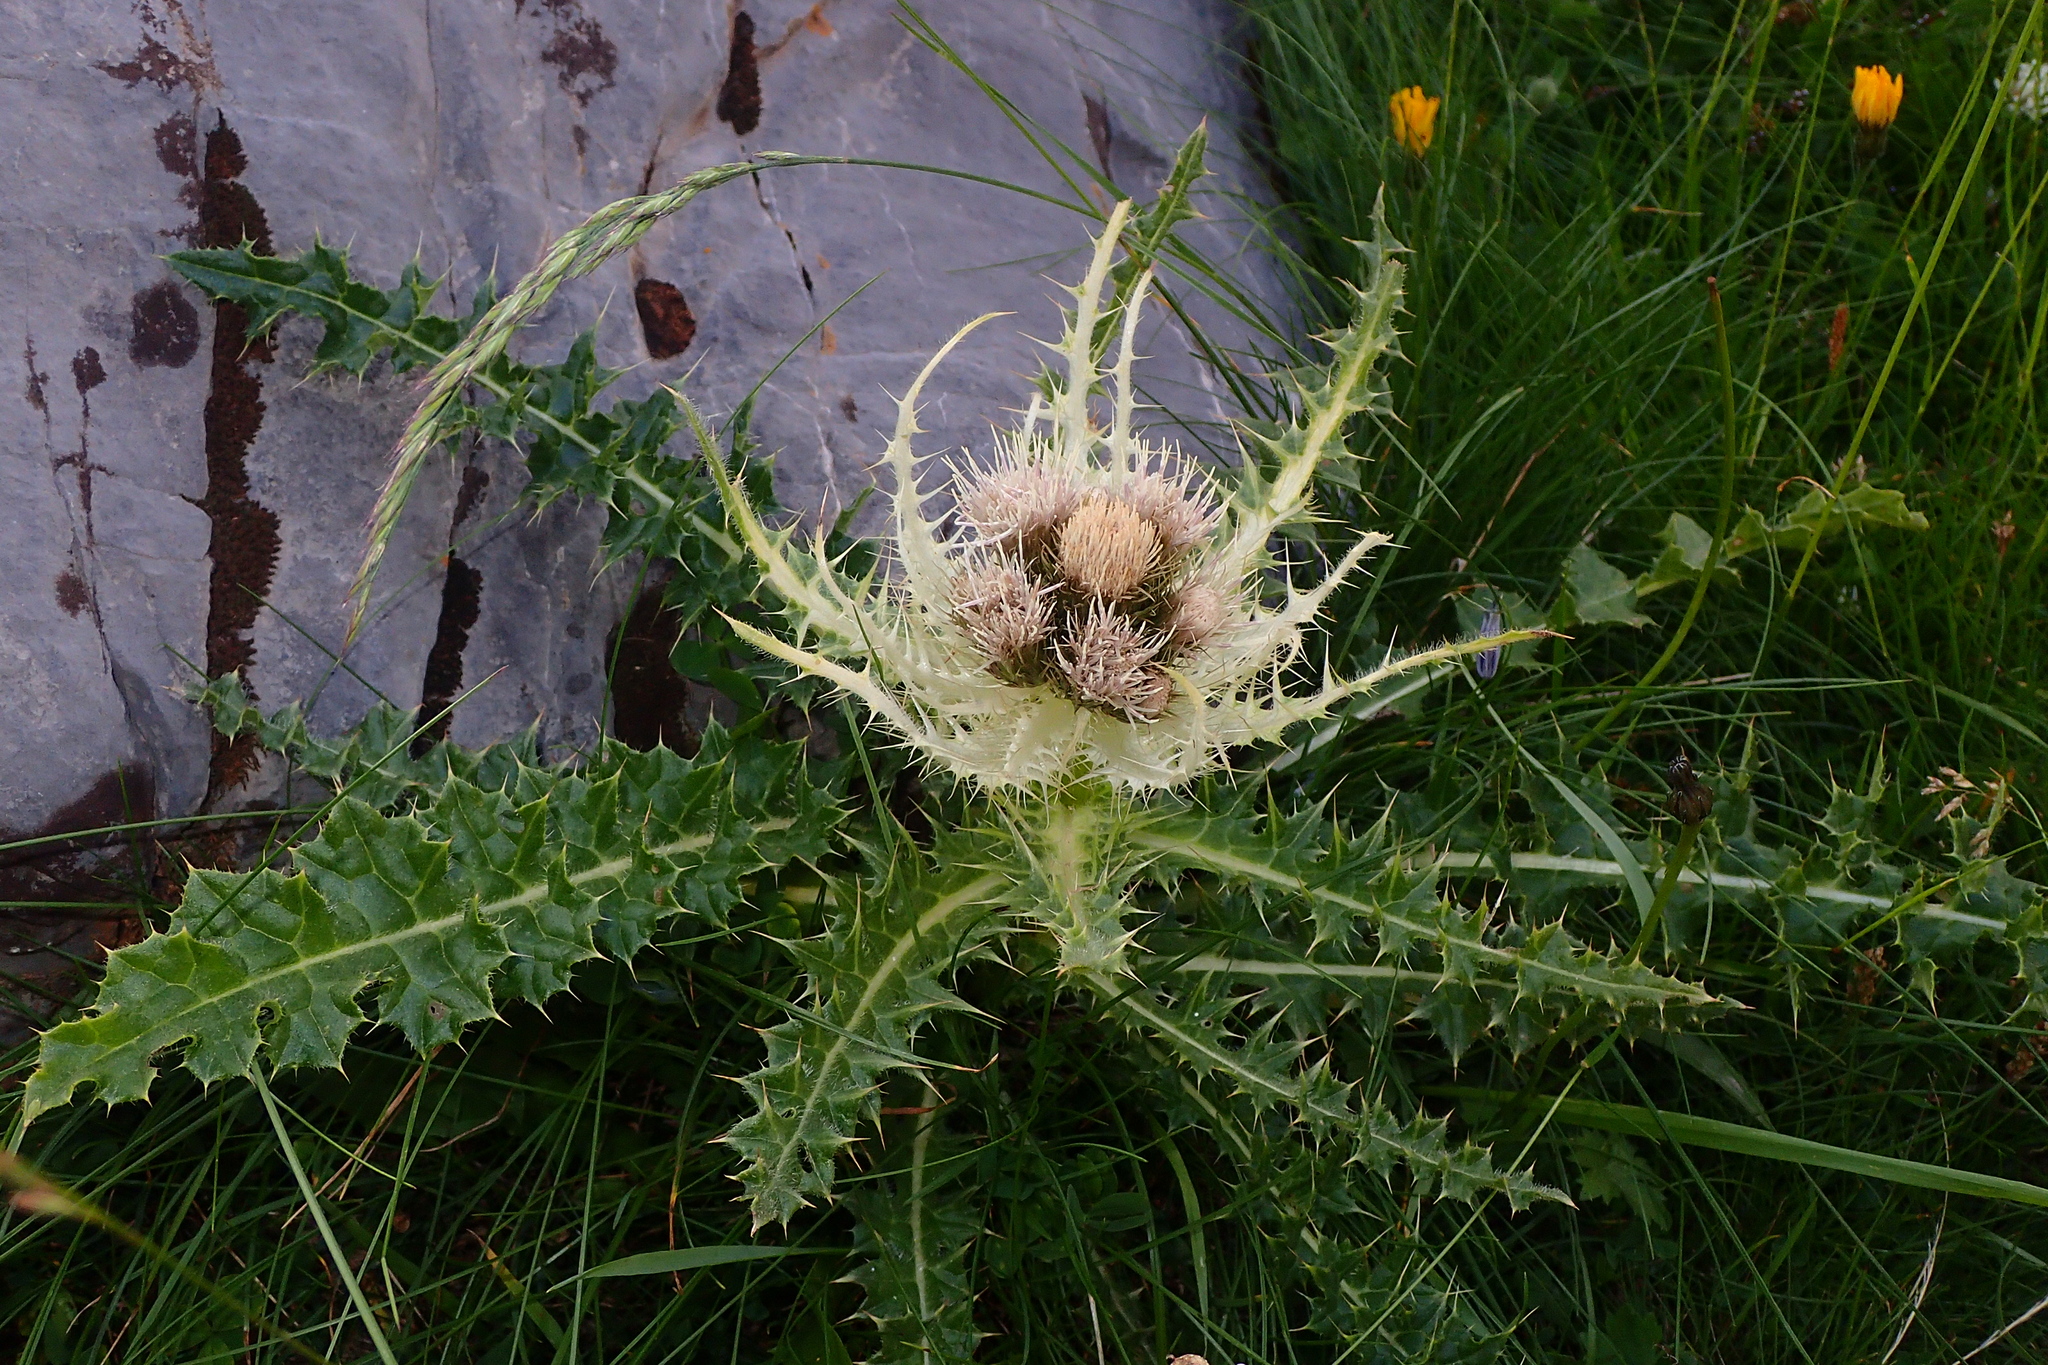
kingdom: Plantae
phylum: Tracheophyta
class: Magnoliopsida
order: Asterales
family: Asteraceae
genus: Cirsium
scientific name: Cirsium spinosissimum
